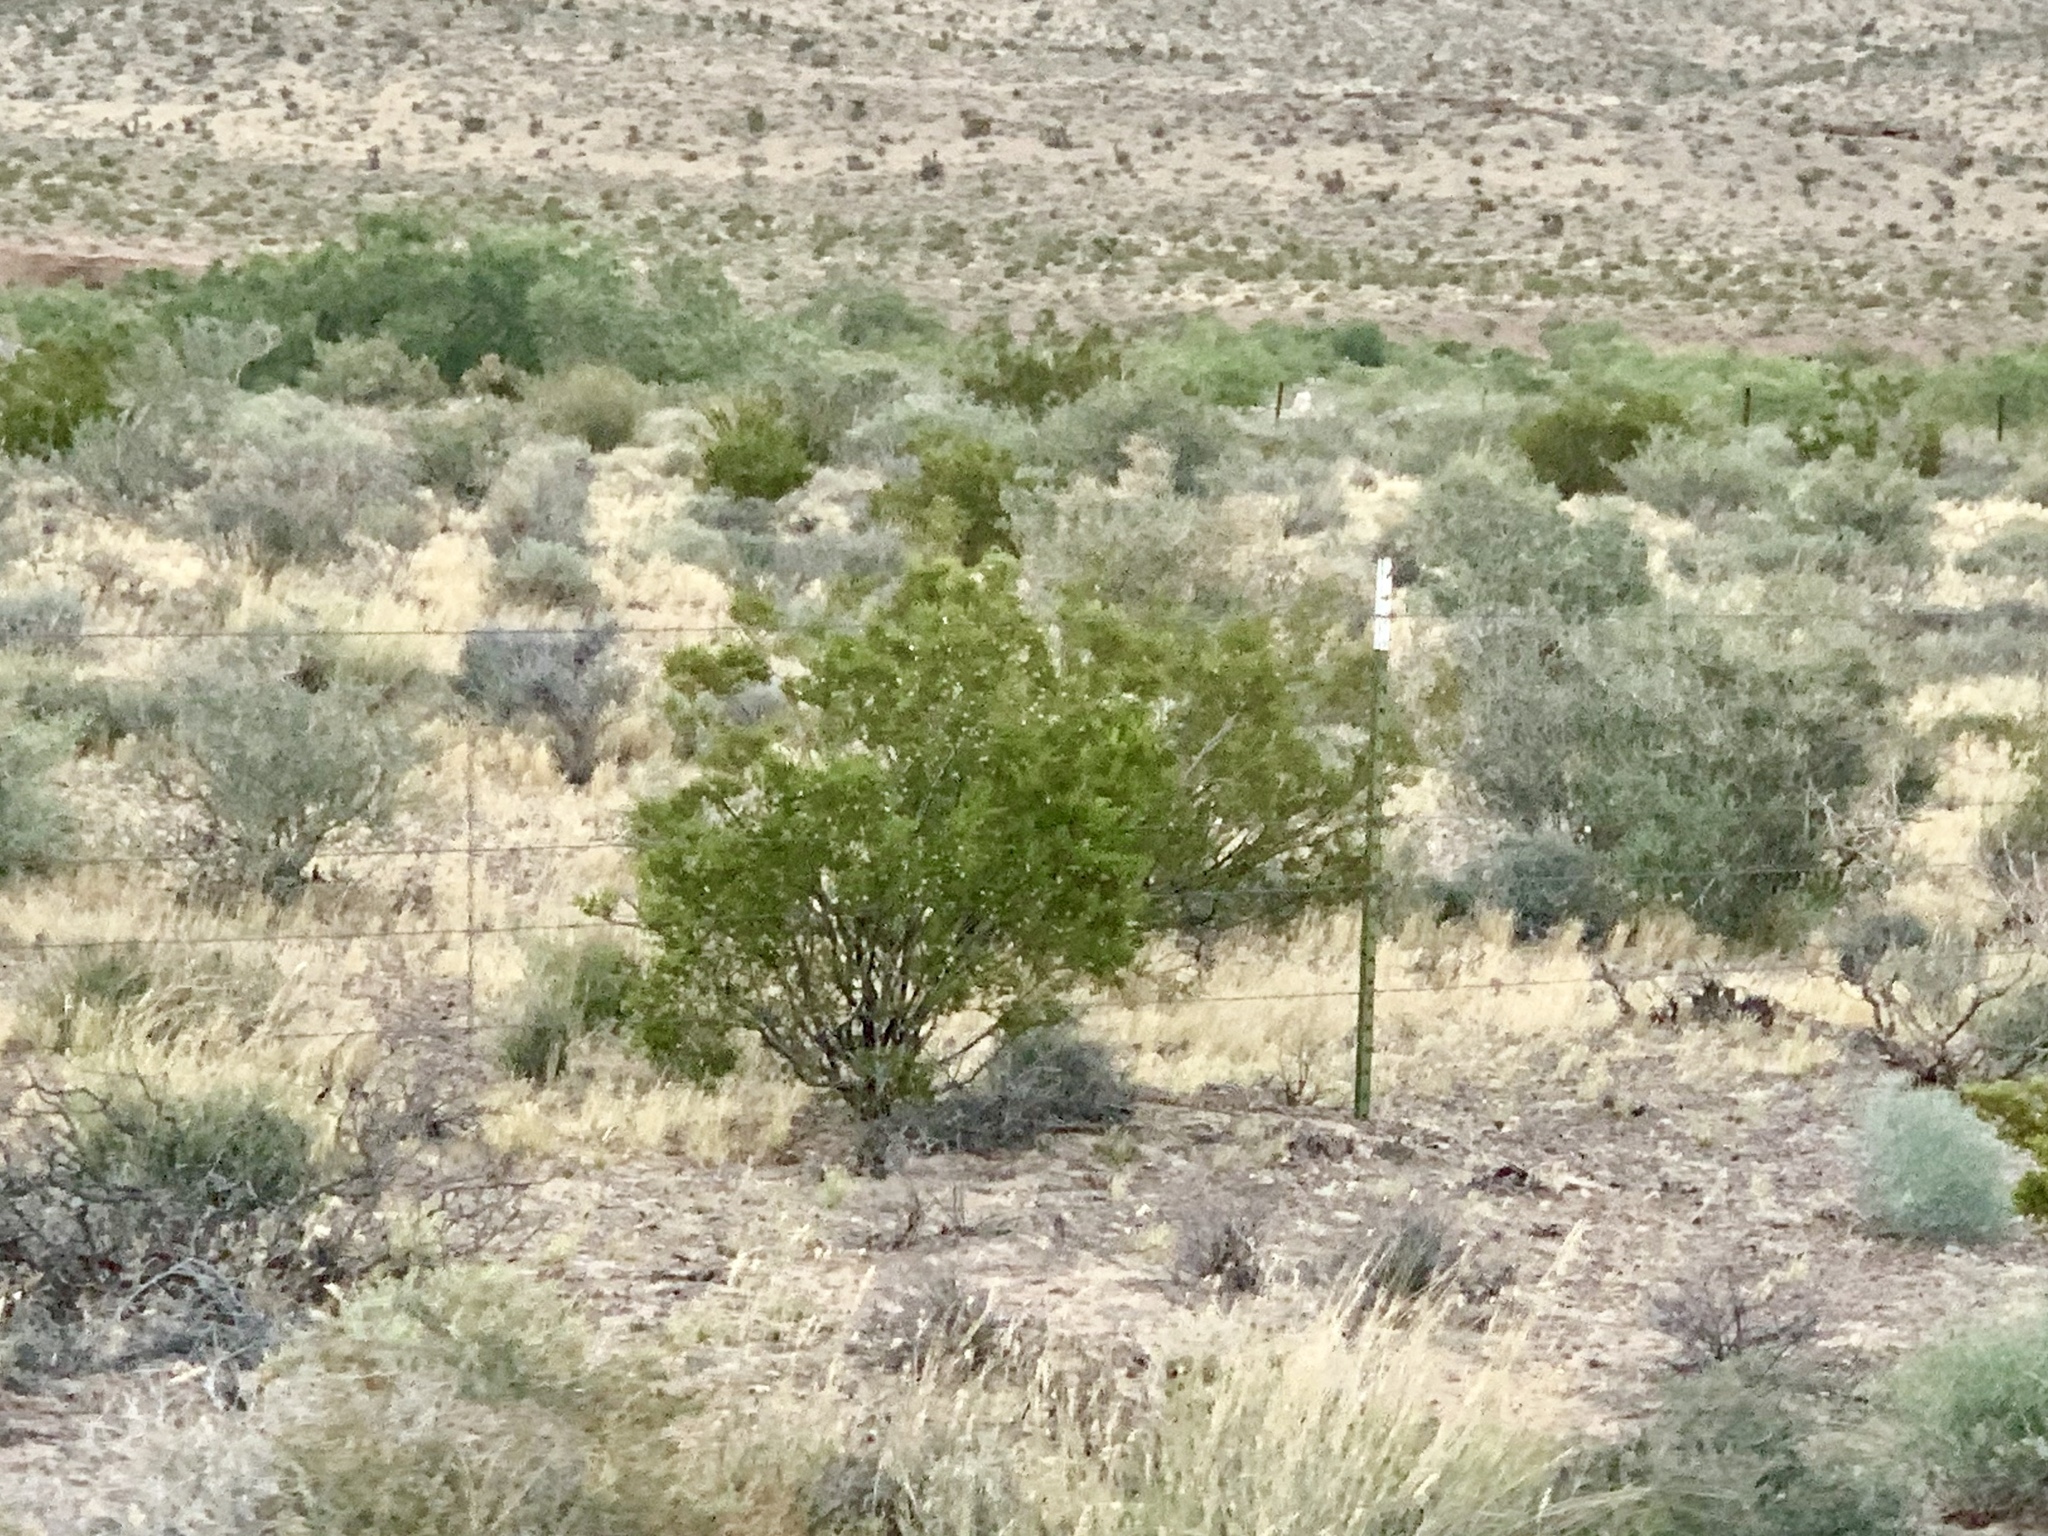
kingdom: Plantae
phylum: Tracheophyta
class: Magnoliopsida
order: Zygophyllales
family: Zygophyllaceae
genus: Larrea
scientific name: Larrea tridentata
